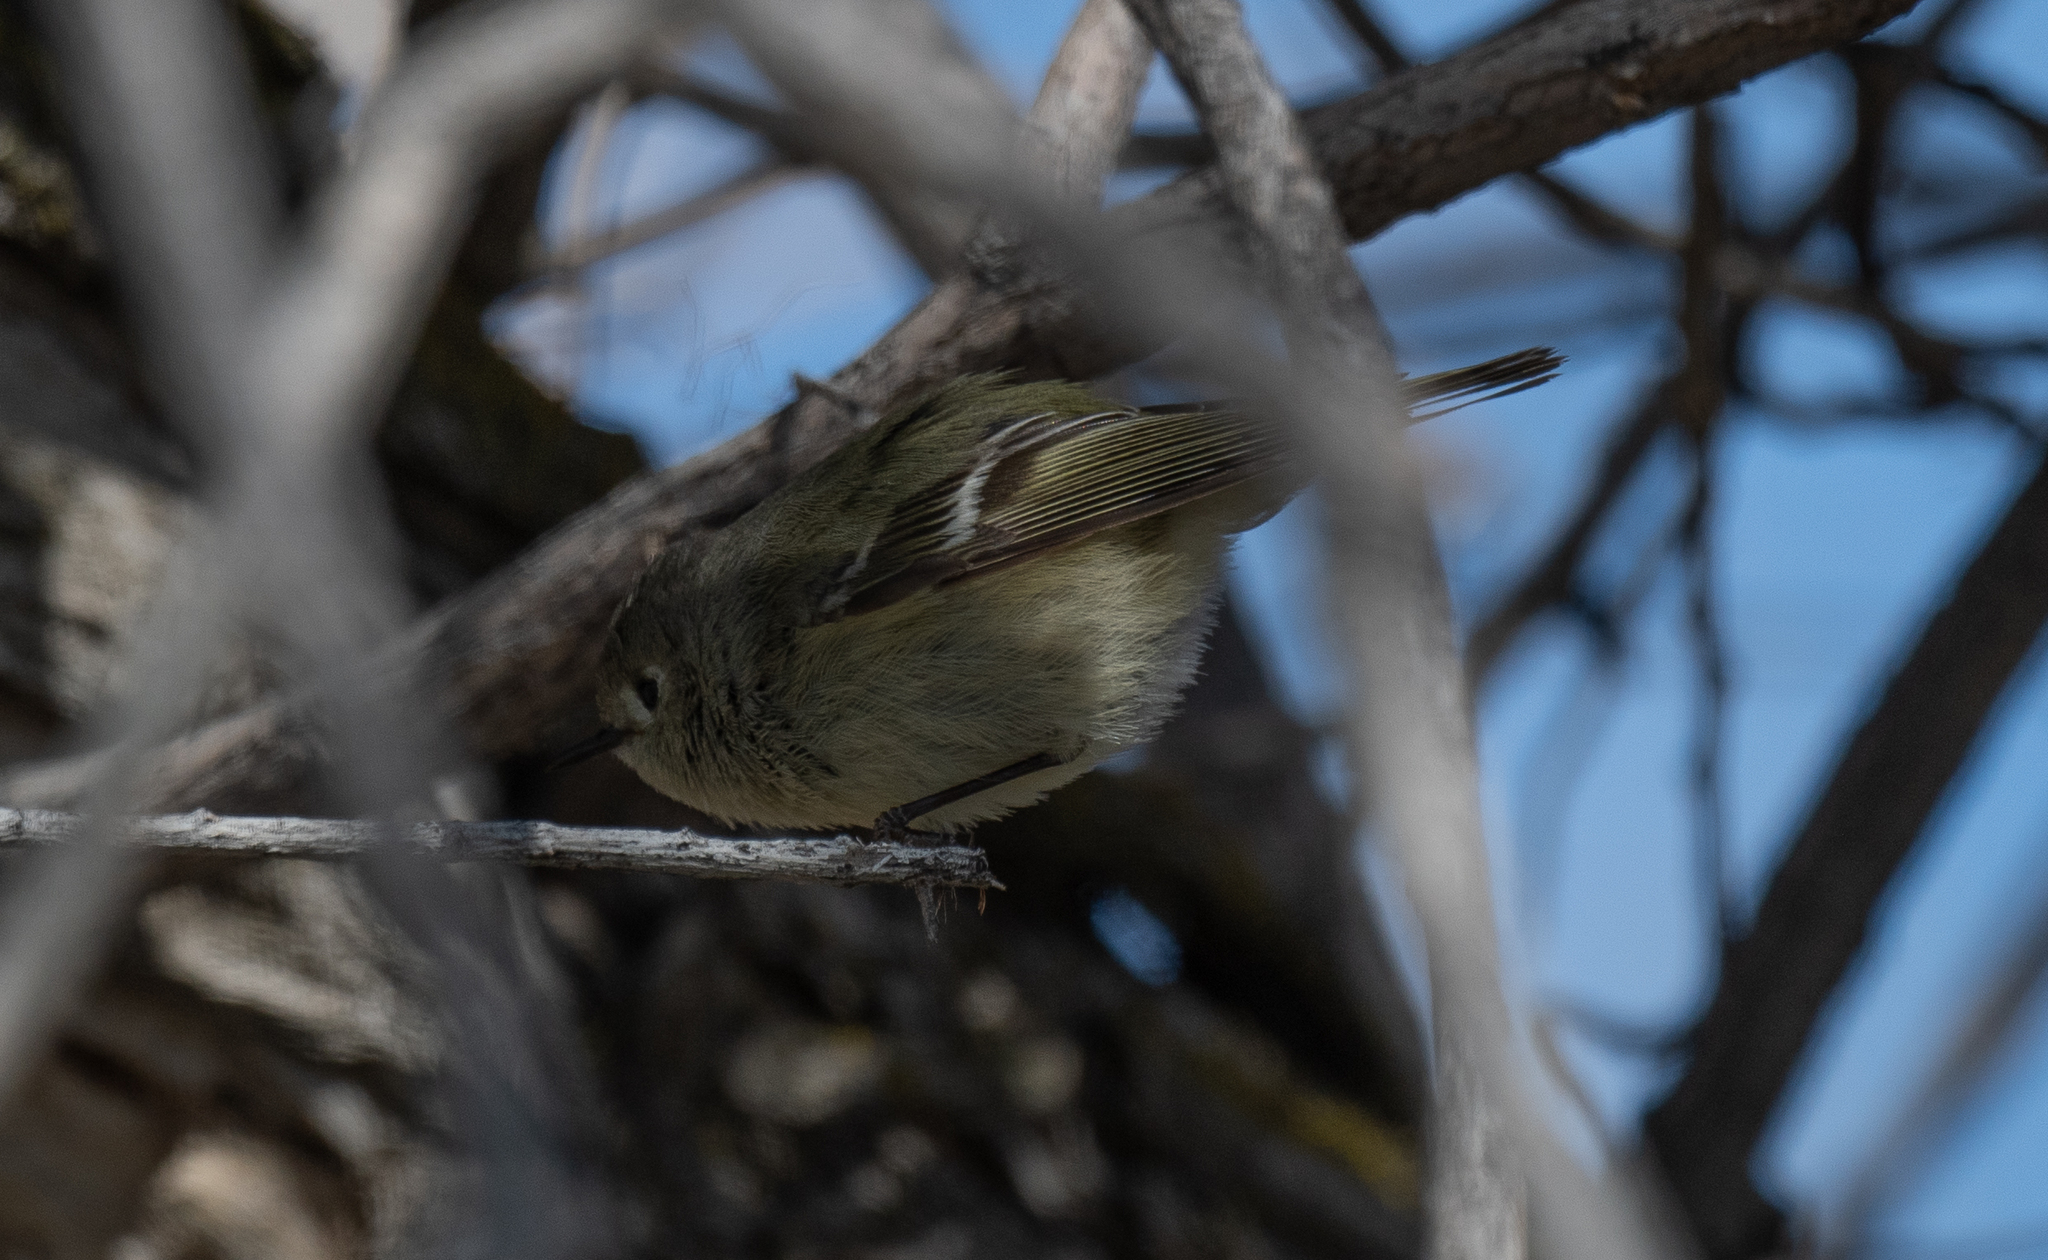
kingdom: Animalia
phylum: Chordata
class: Aves
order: Passeriformes
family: Regulidae
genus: Regulus
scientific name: Regulus calendula
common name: Ruby-crowned kinglet
